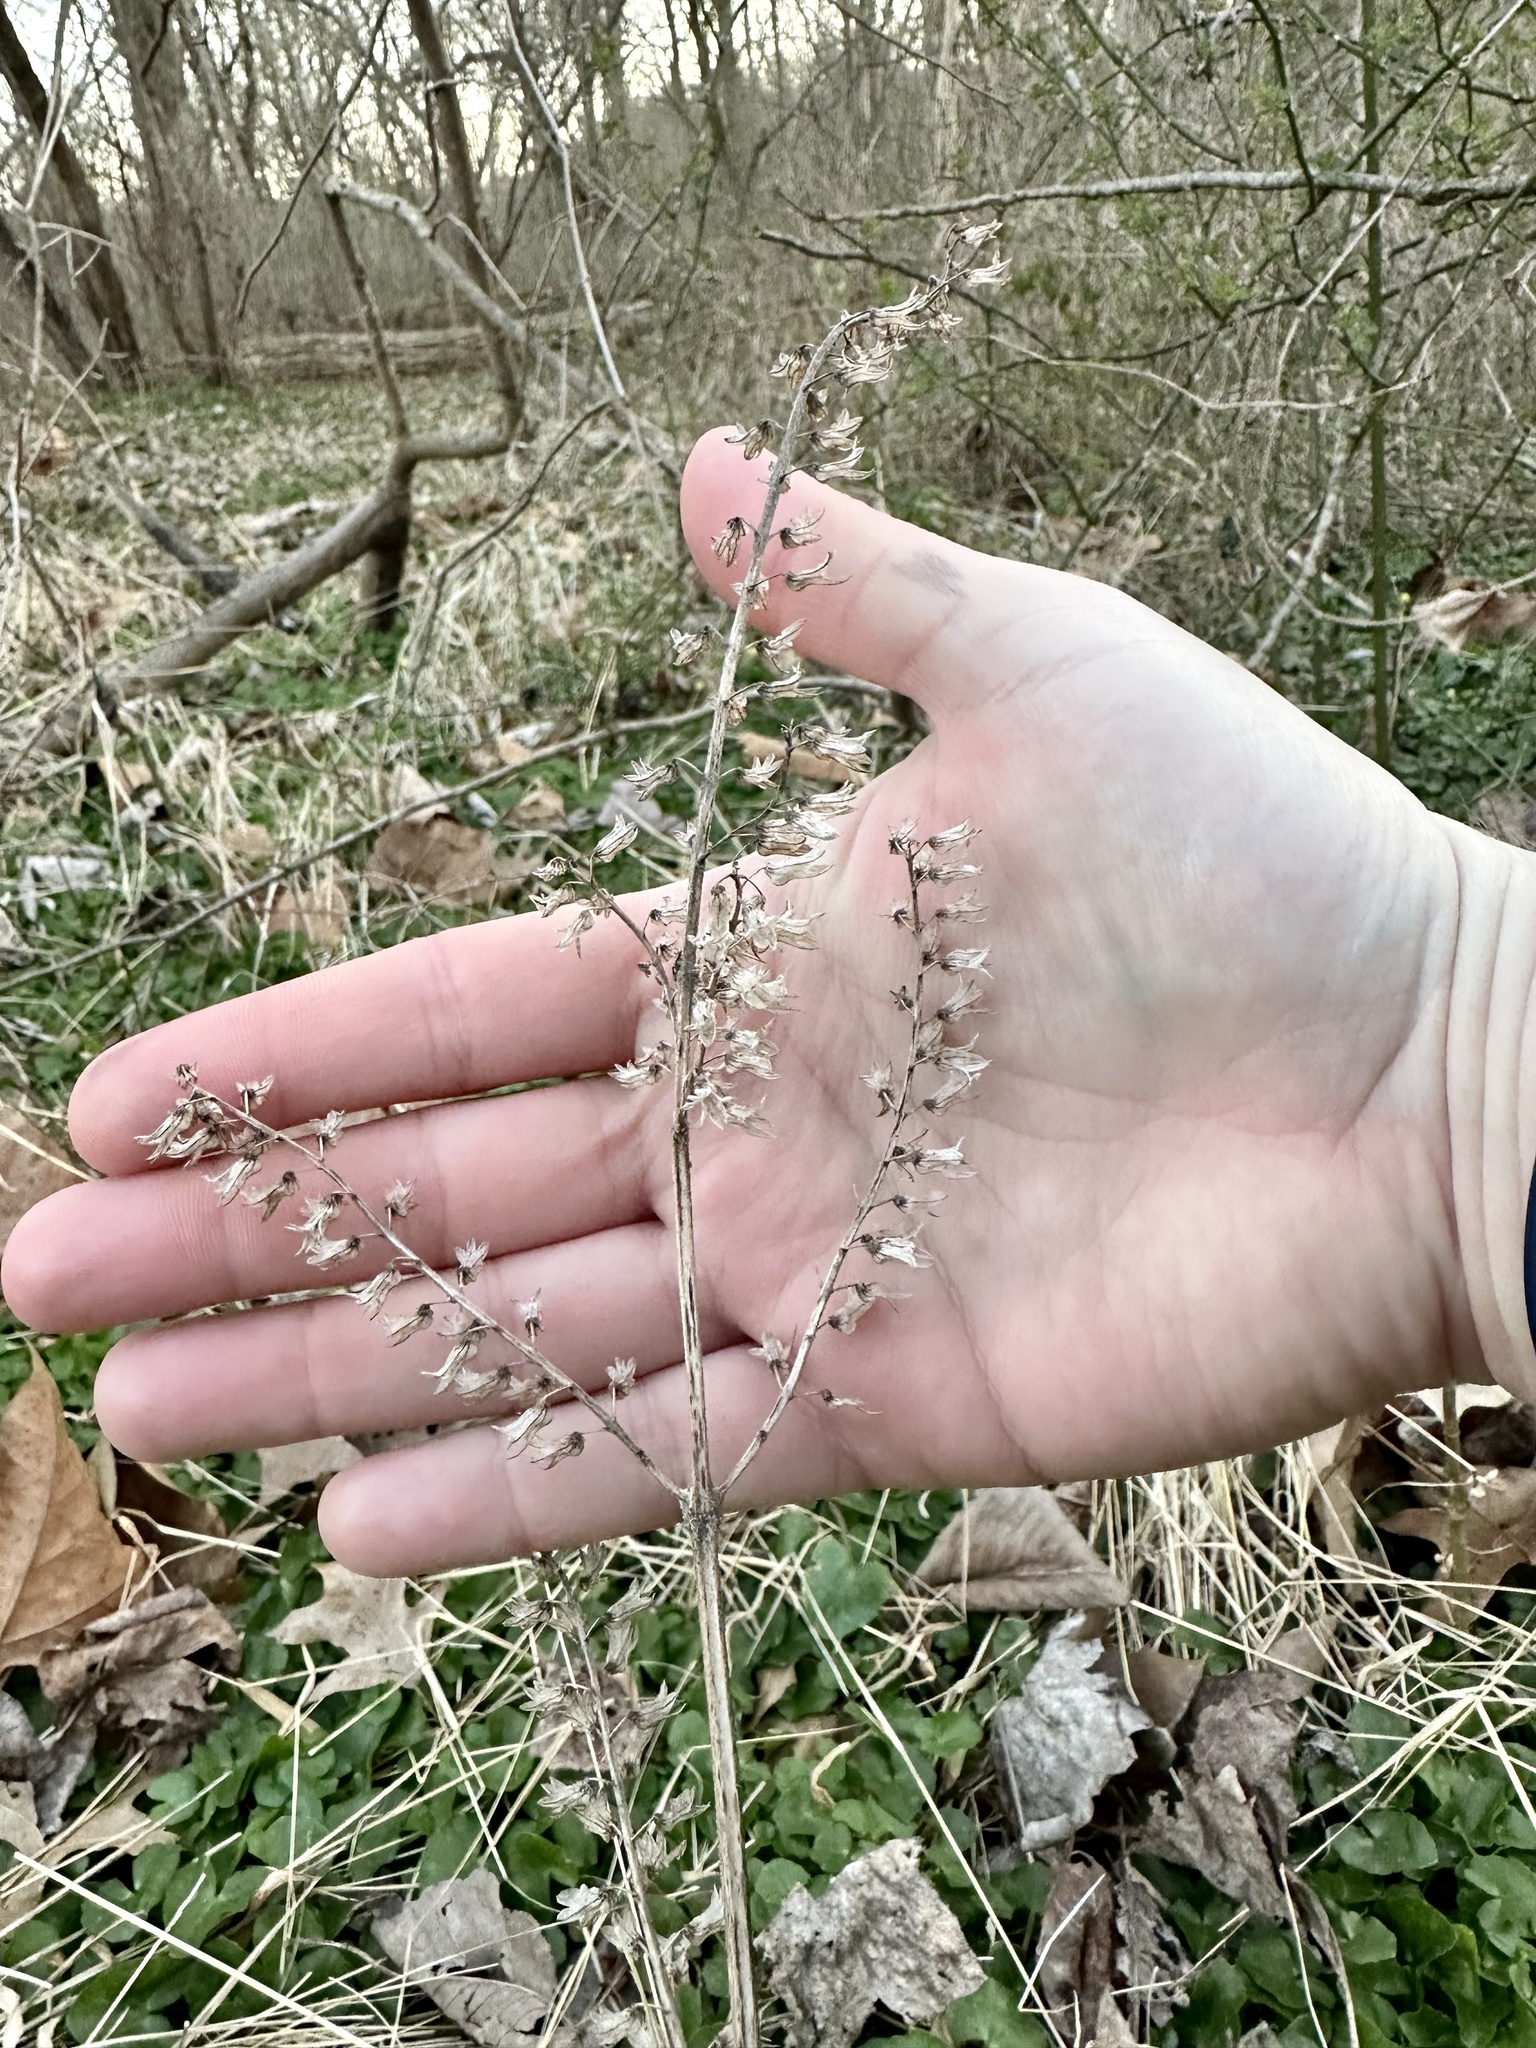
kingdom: Plantae
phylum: Tracheophyta
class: Magnoliopsida
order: Lamiales
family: Lamiaceae
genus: Perilla
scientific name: Perilla frutescens
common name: Perilla
